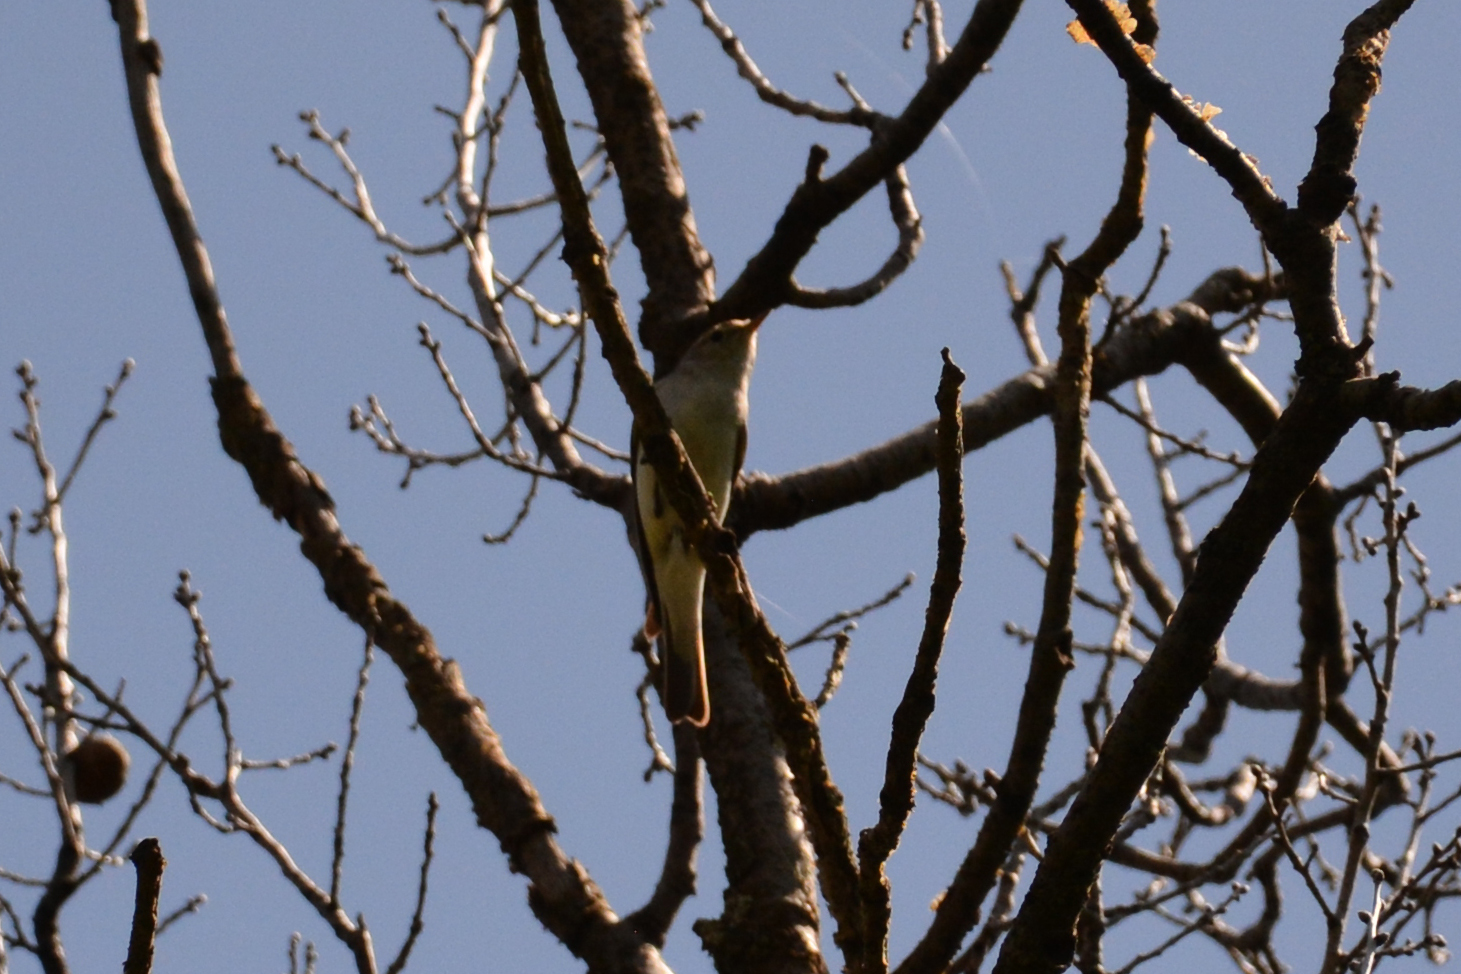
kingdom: Animalia
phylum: Chordata
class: Aves
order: Passeriformes
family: Phylloscopidae
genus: Phylloscopus
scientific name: Phylloscopus orientalis
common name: Eastern bonelli's warbler
